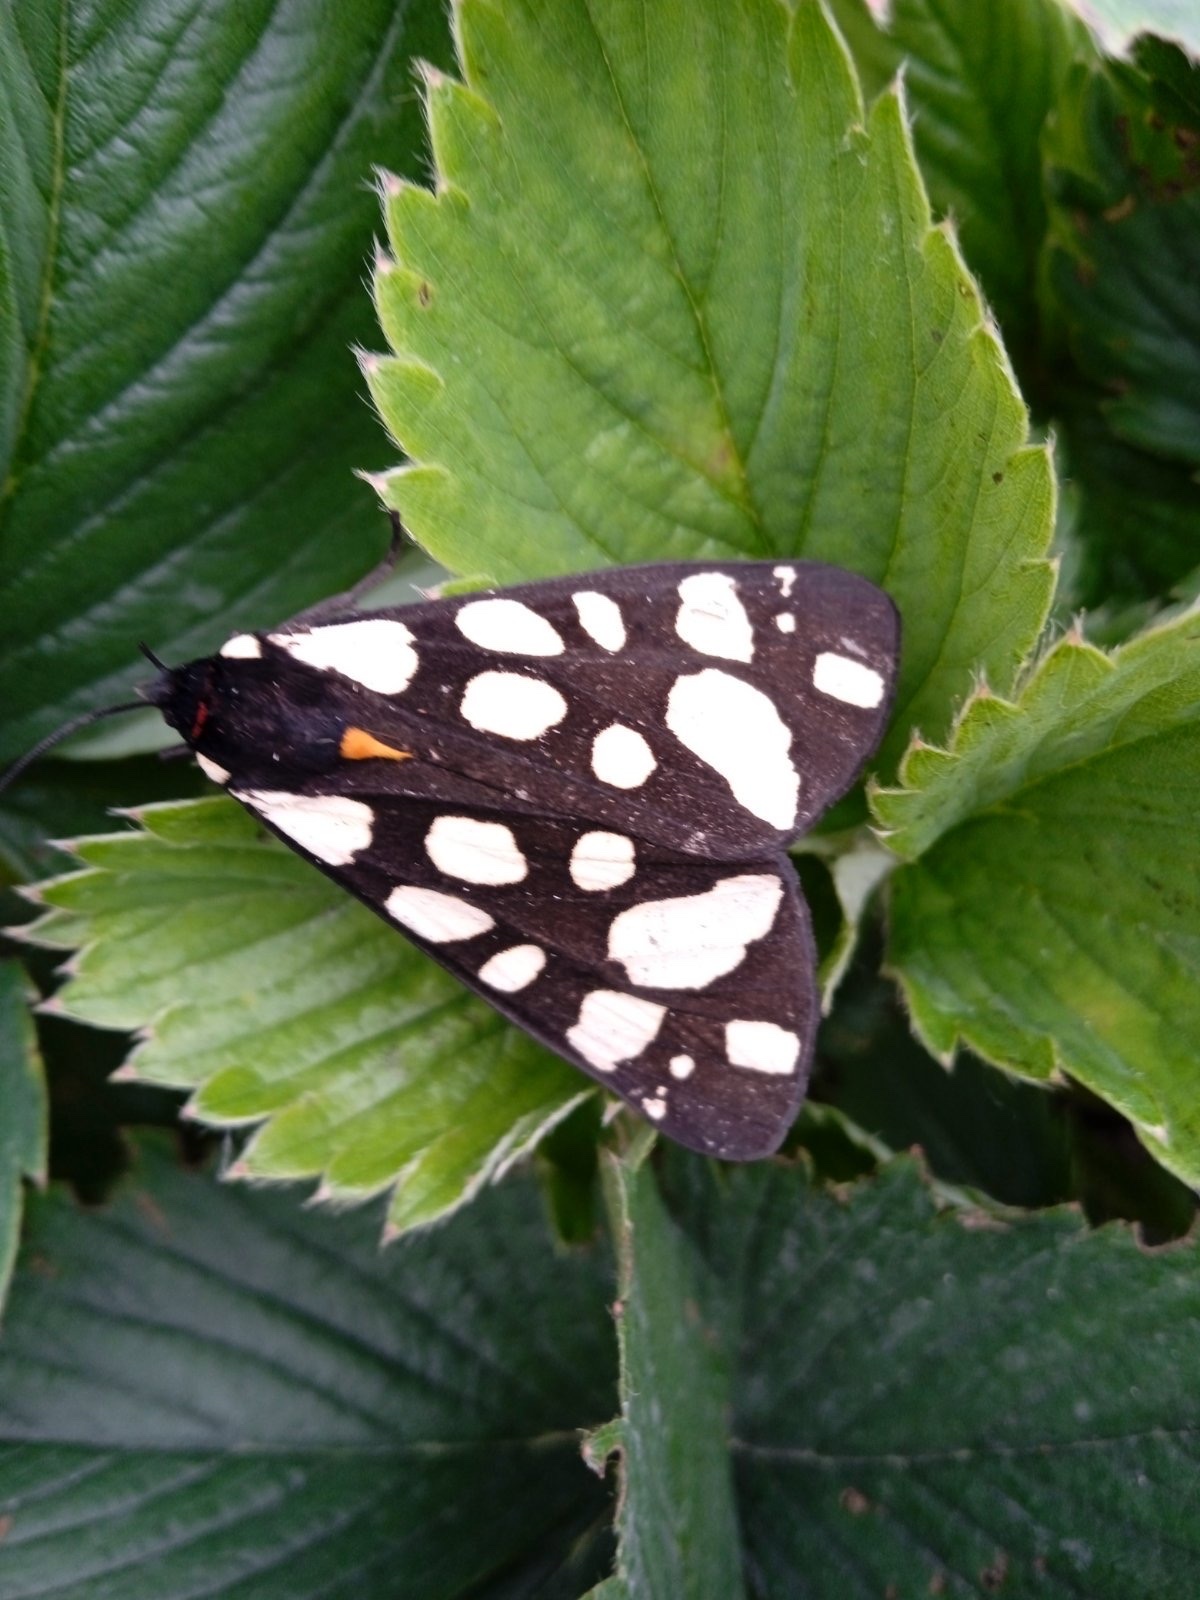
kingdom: Animalia
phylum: Arthropoda
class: Insecta
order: Lepidoptera
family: Erebidae
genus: Epicallia
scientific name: Epicallia villica
